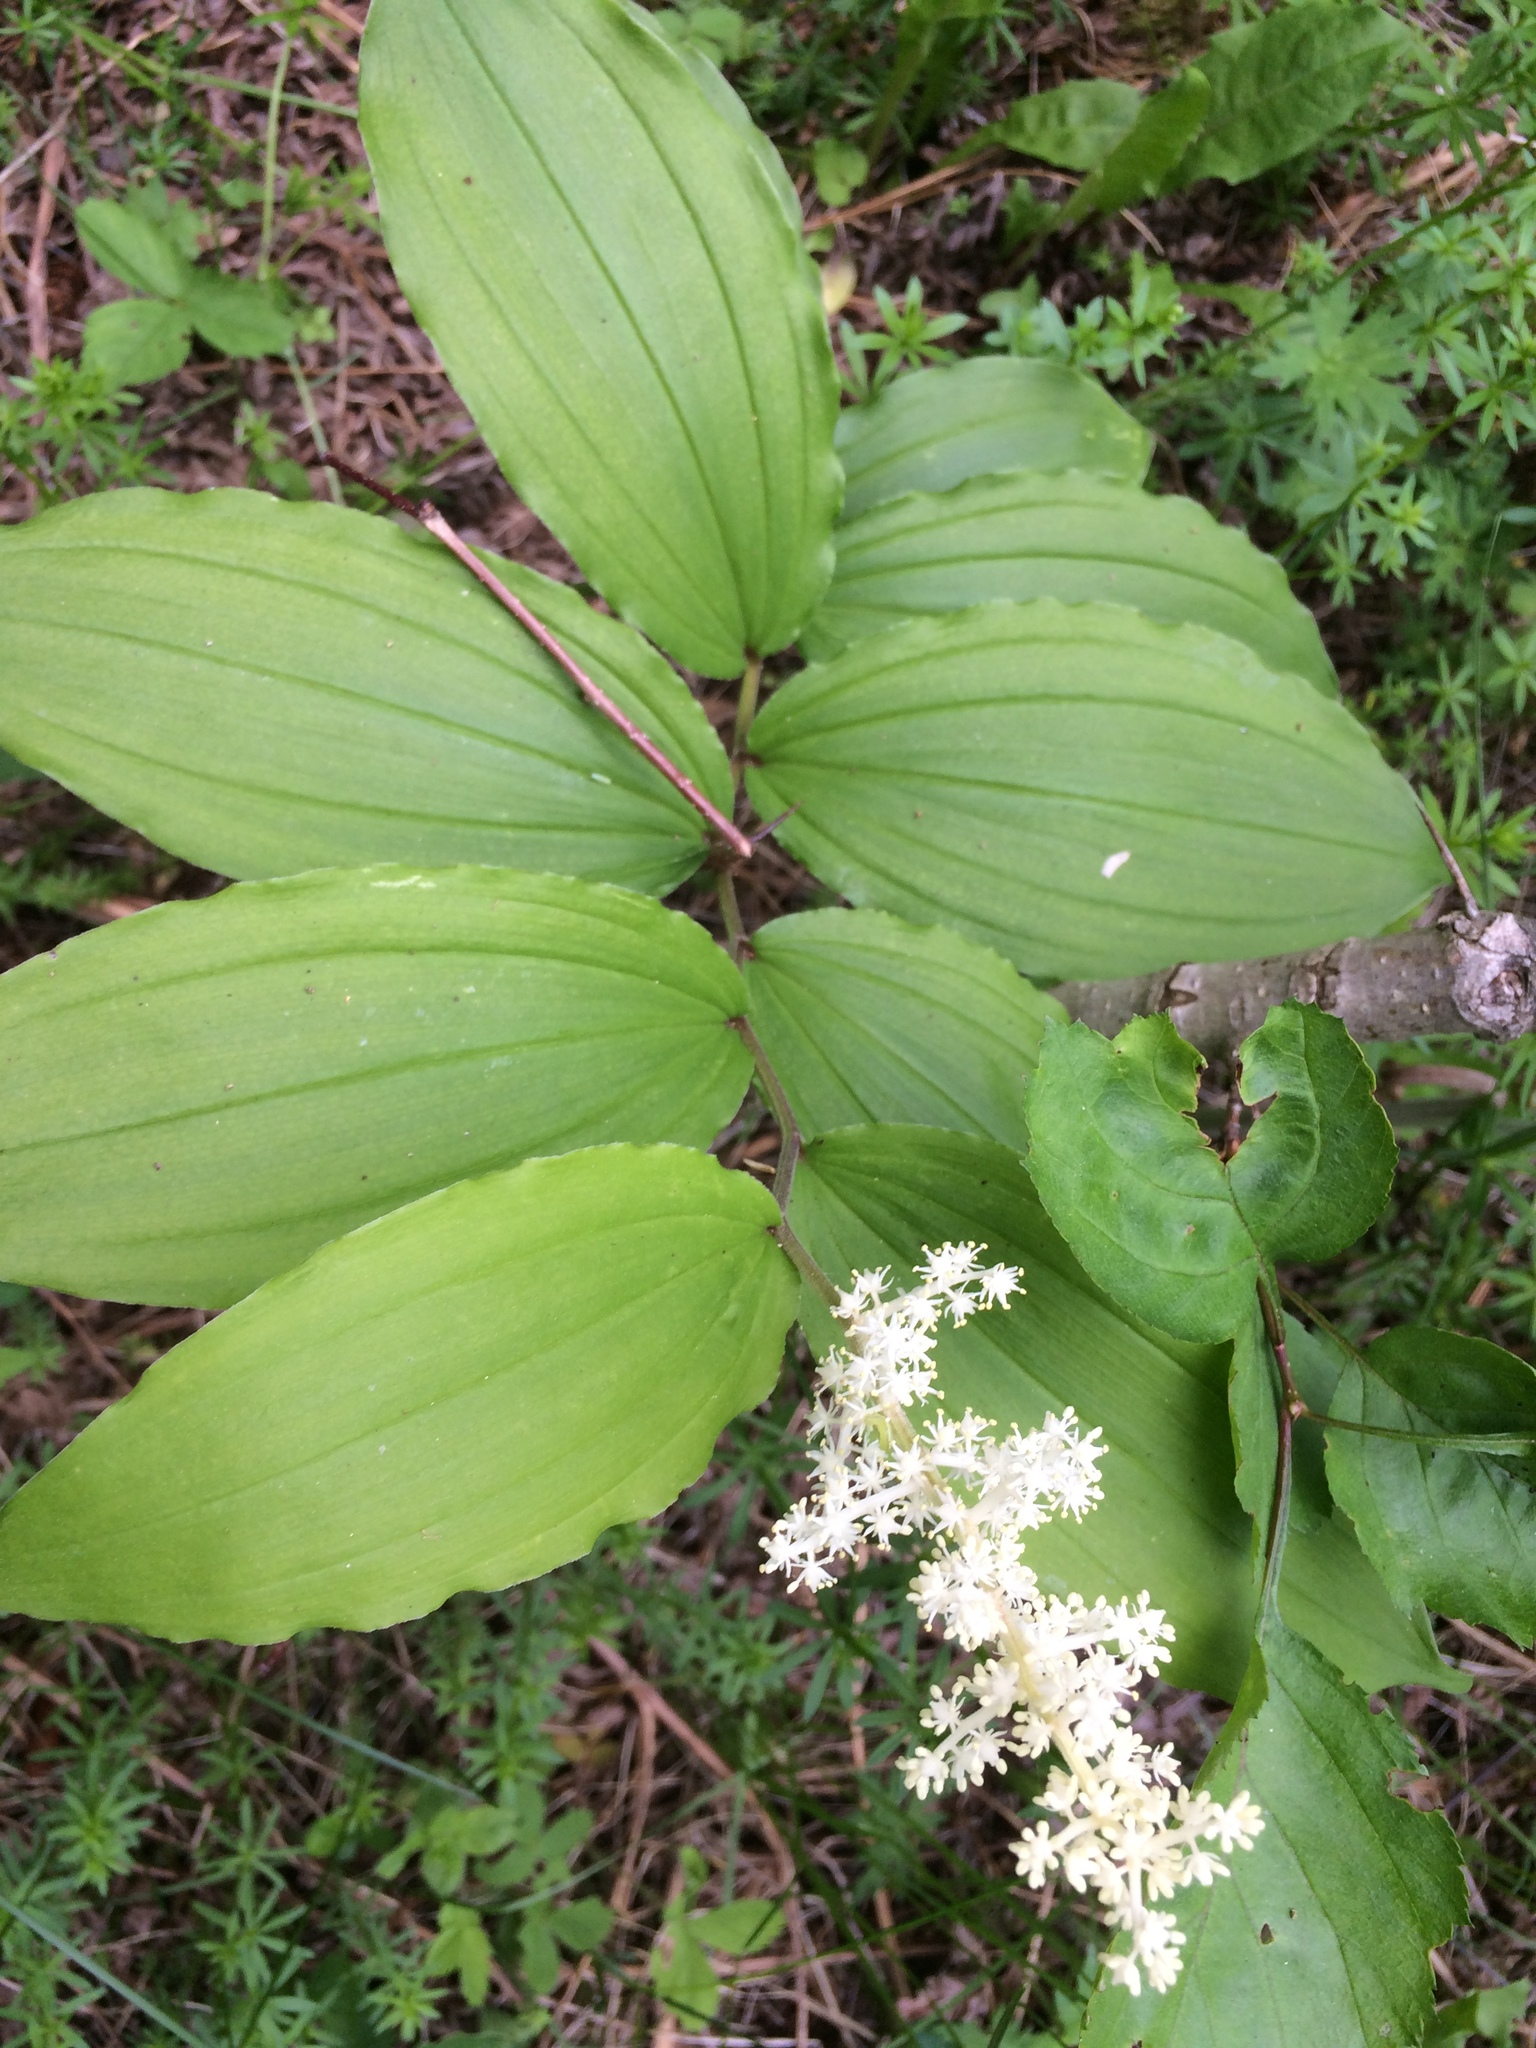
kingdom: Plantae
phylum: Tracheophyta
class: Liliopsida
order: Asparagales
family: Asparagaceae
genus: Maianthemum
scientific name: Maianthemum racemosum
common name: False spikenard
